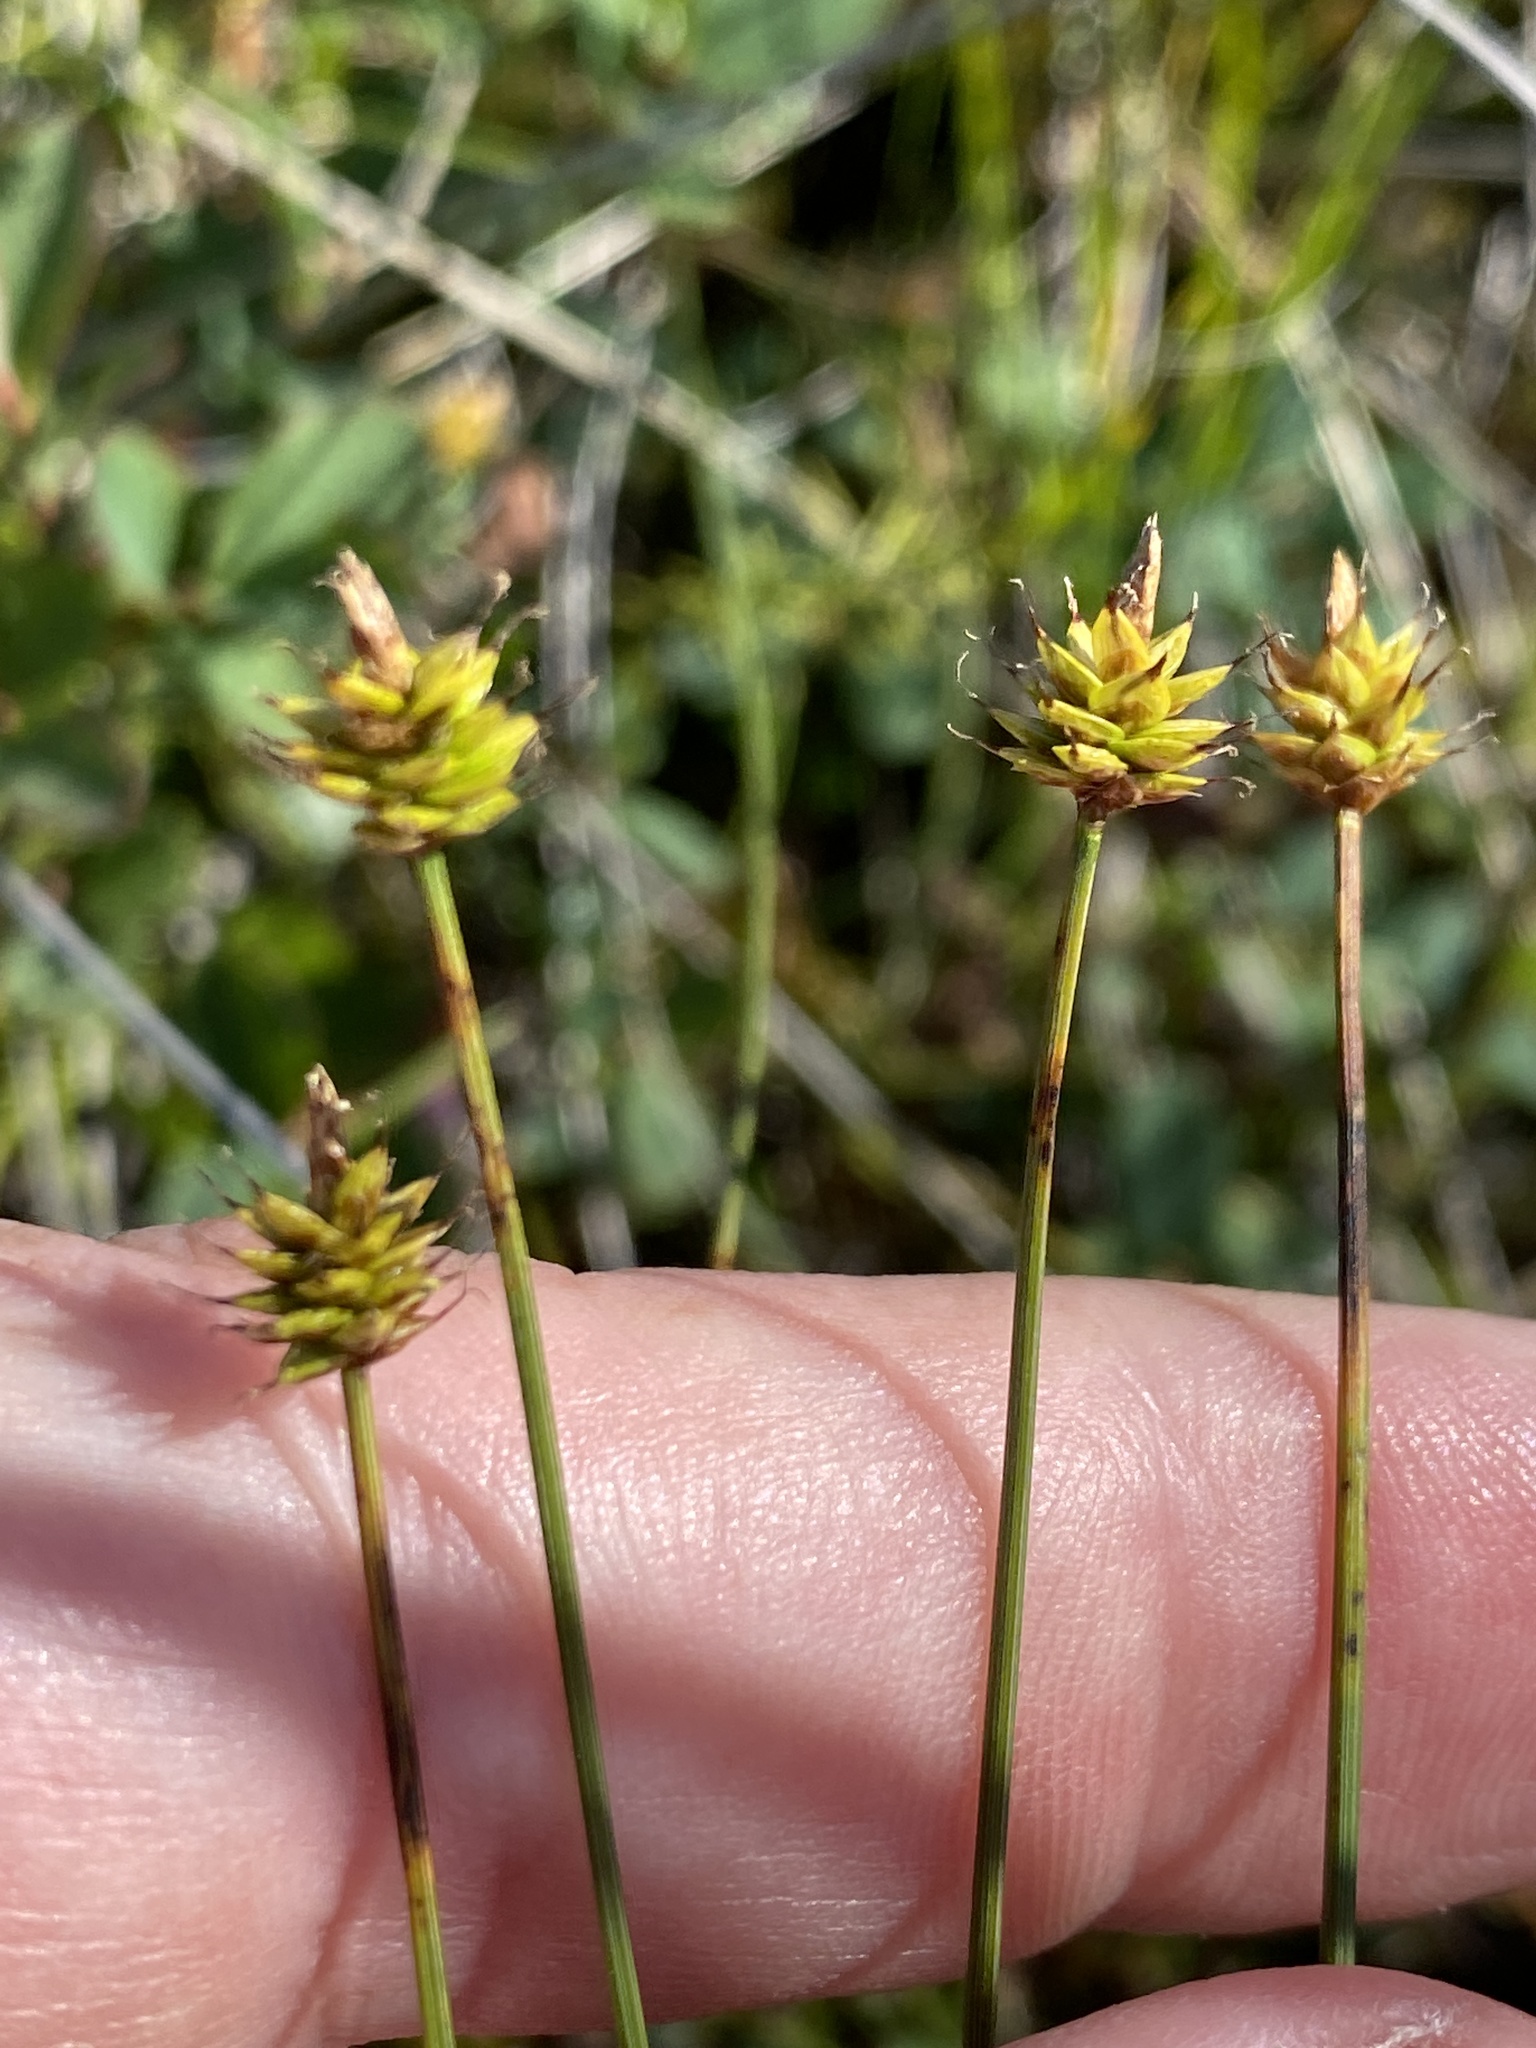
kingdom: Plantae
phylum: Tracheophyta
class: Liliopsida
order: Poales
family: Cyperaceae
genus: Carex
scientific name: Carex capitata
